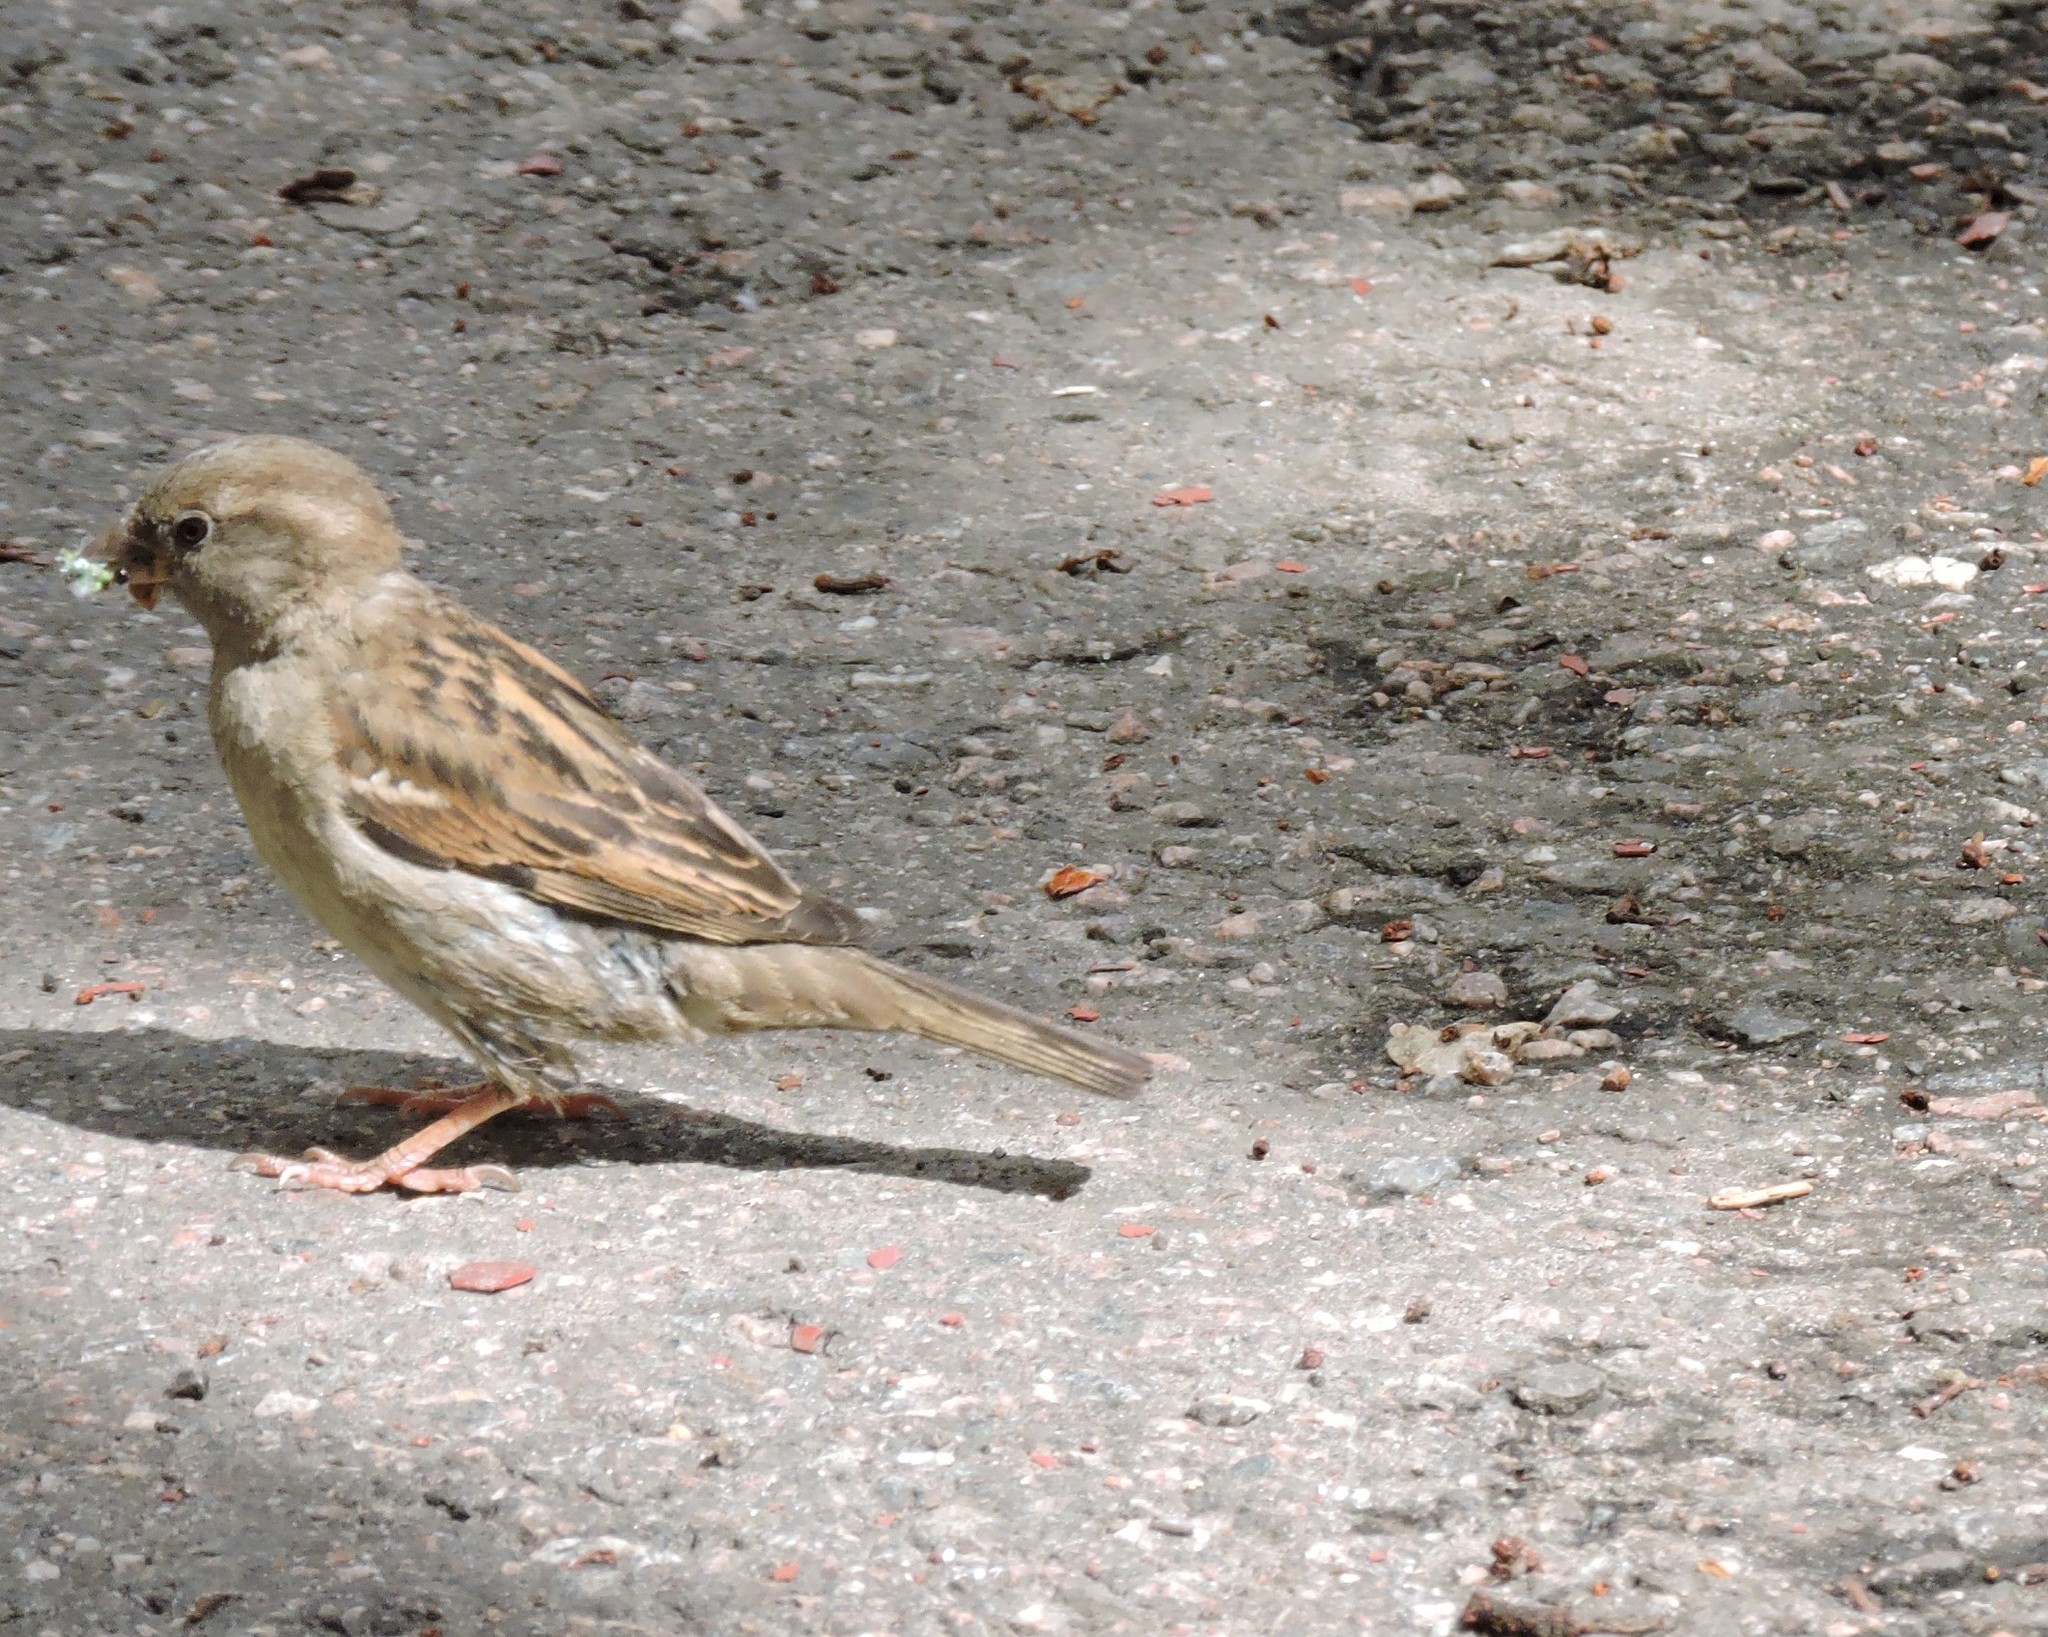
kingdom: Animalia
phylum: Chordata
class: Aves
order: Passeriformes
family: Passeridae
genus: Passer
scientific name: Passer domesticus
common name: House sparrow
